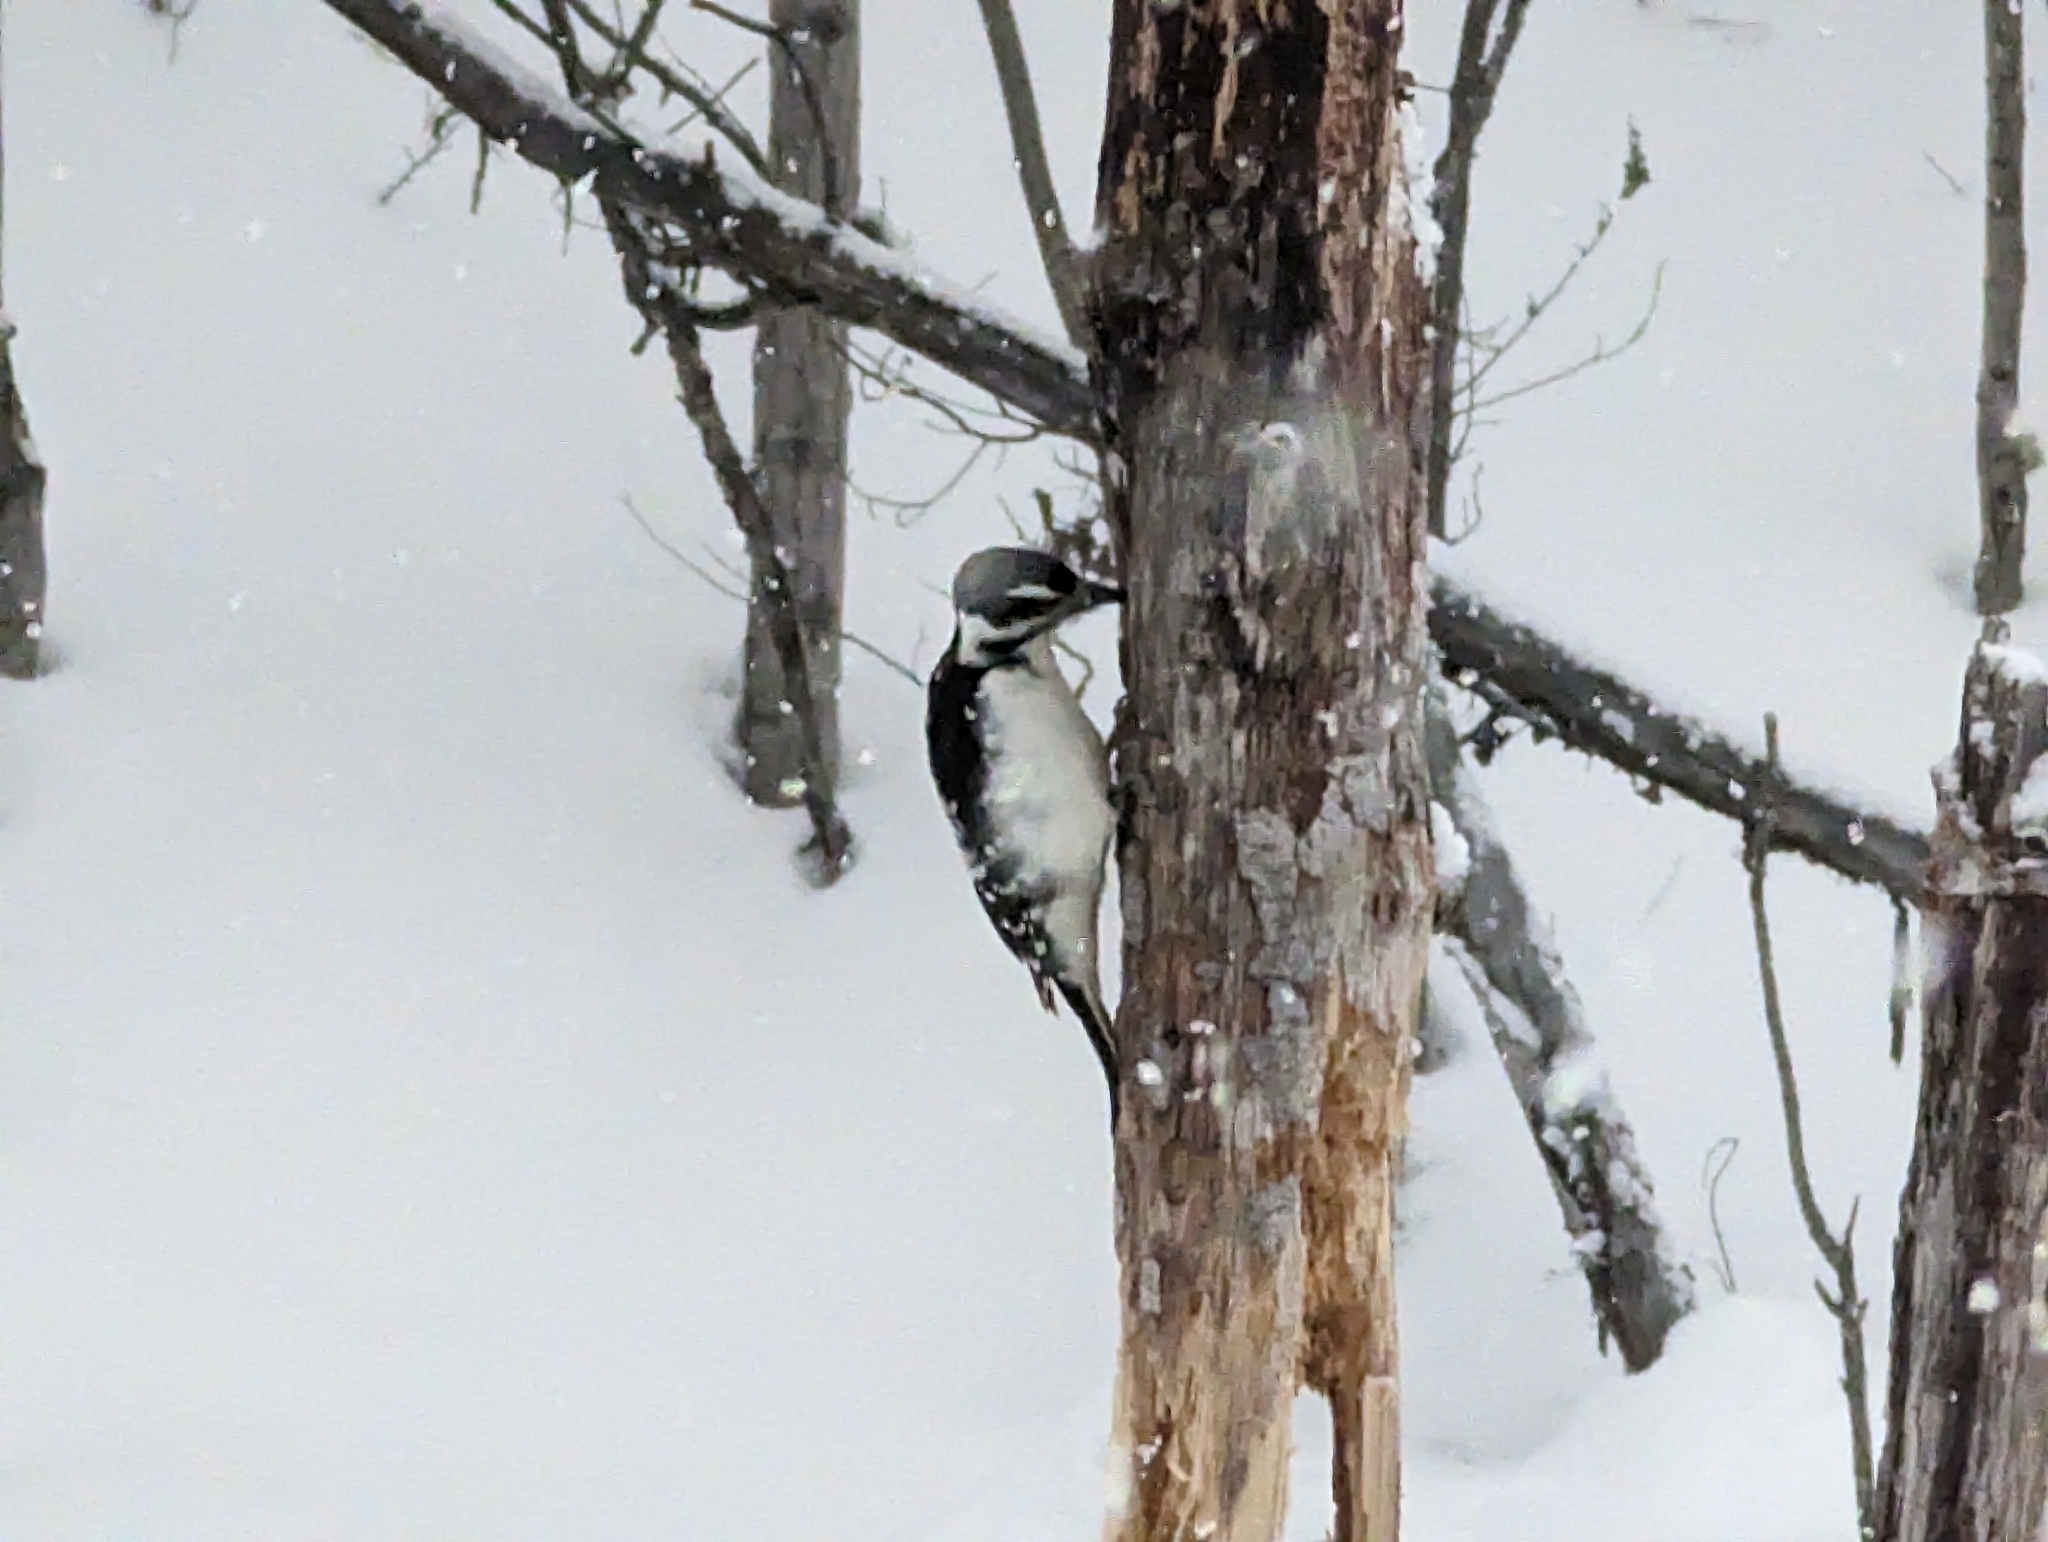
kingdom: Animalia
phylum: Chordata
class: Aves
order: Piciformes
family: Picidae
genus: Leuconotopicus
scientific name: Leuconotopicus villosus
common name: Hairy woodpecker
